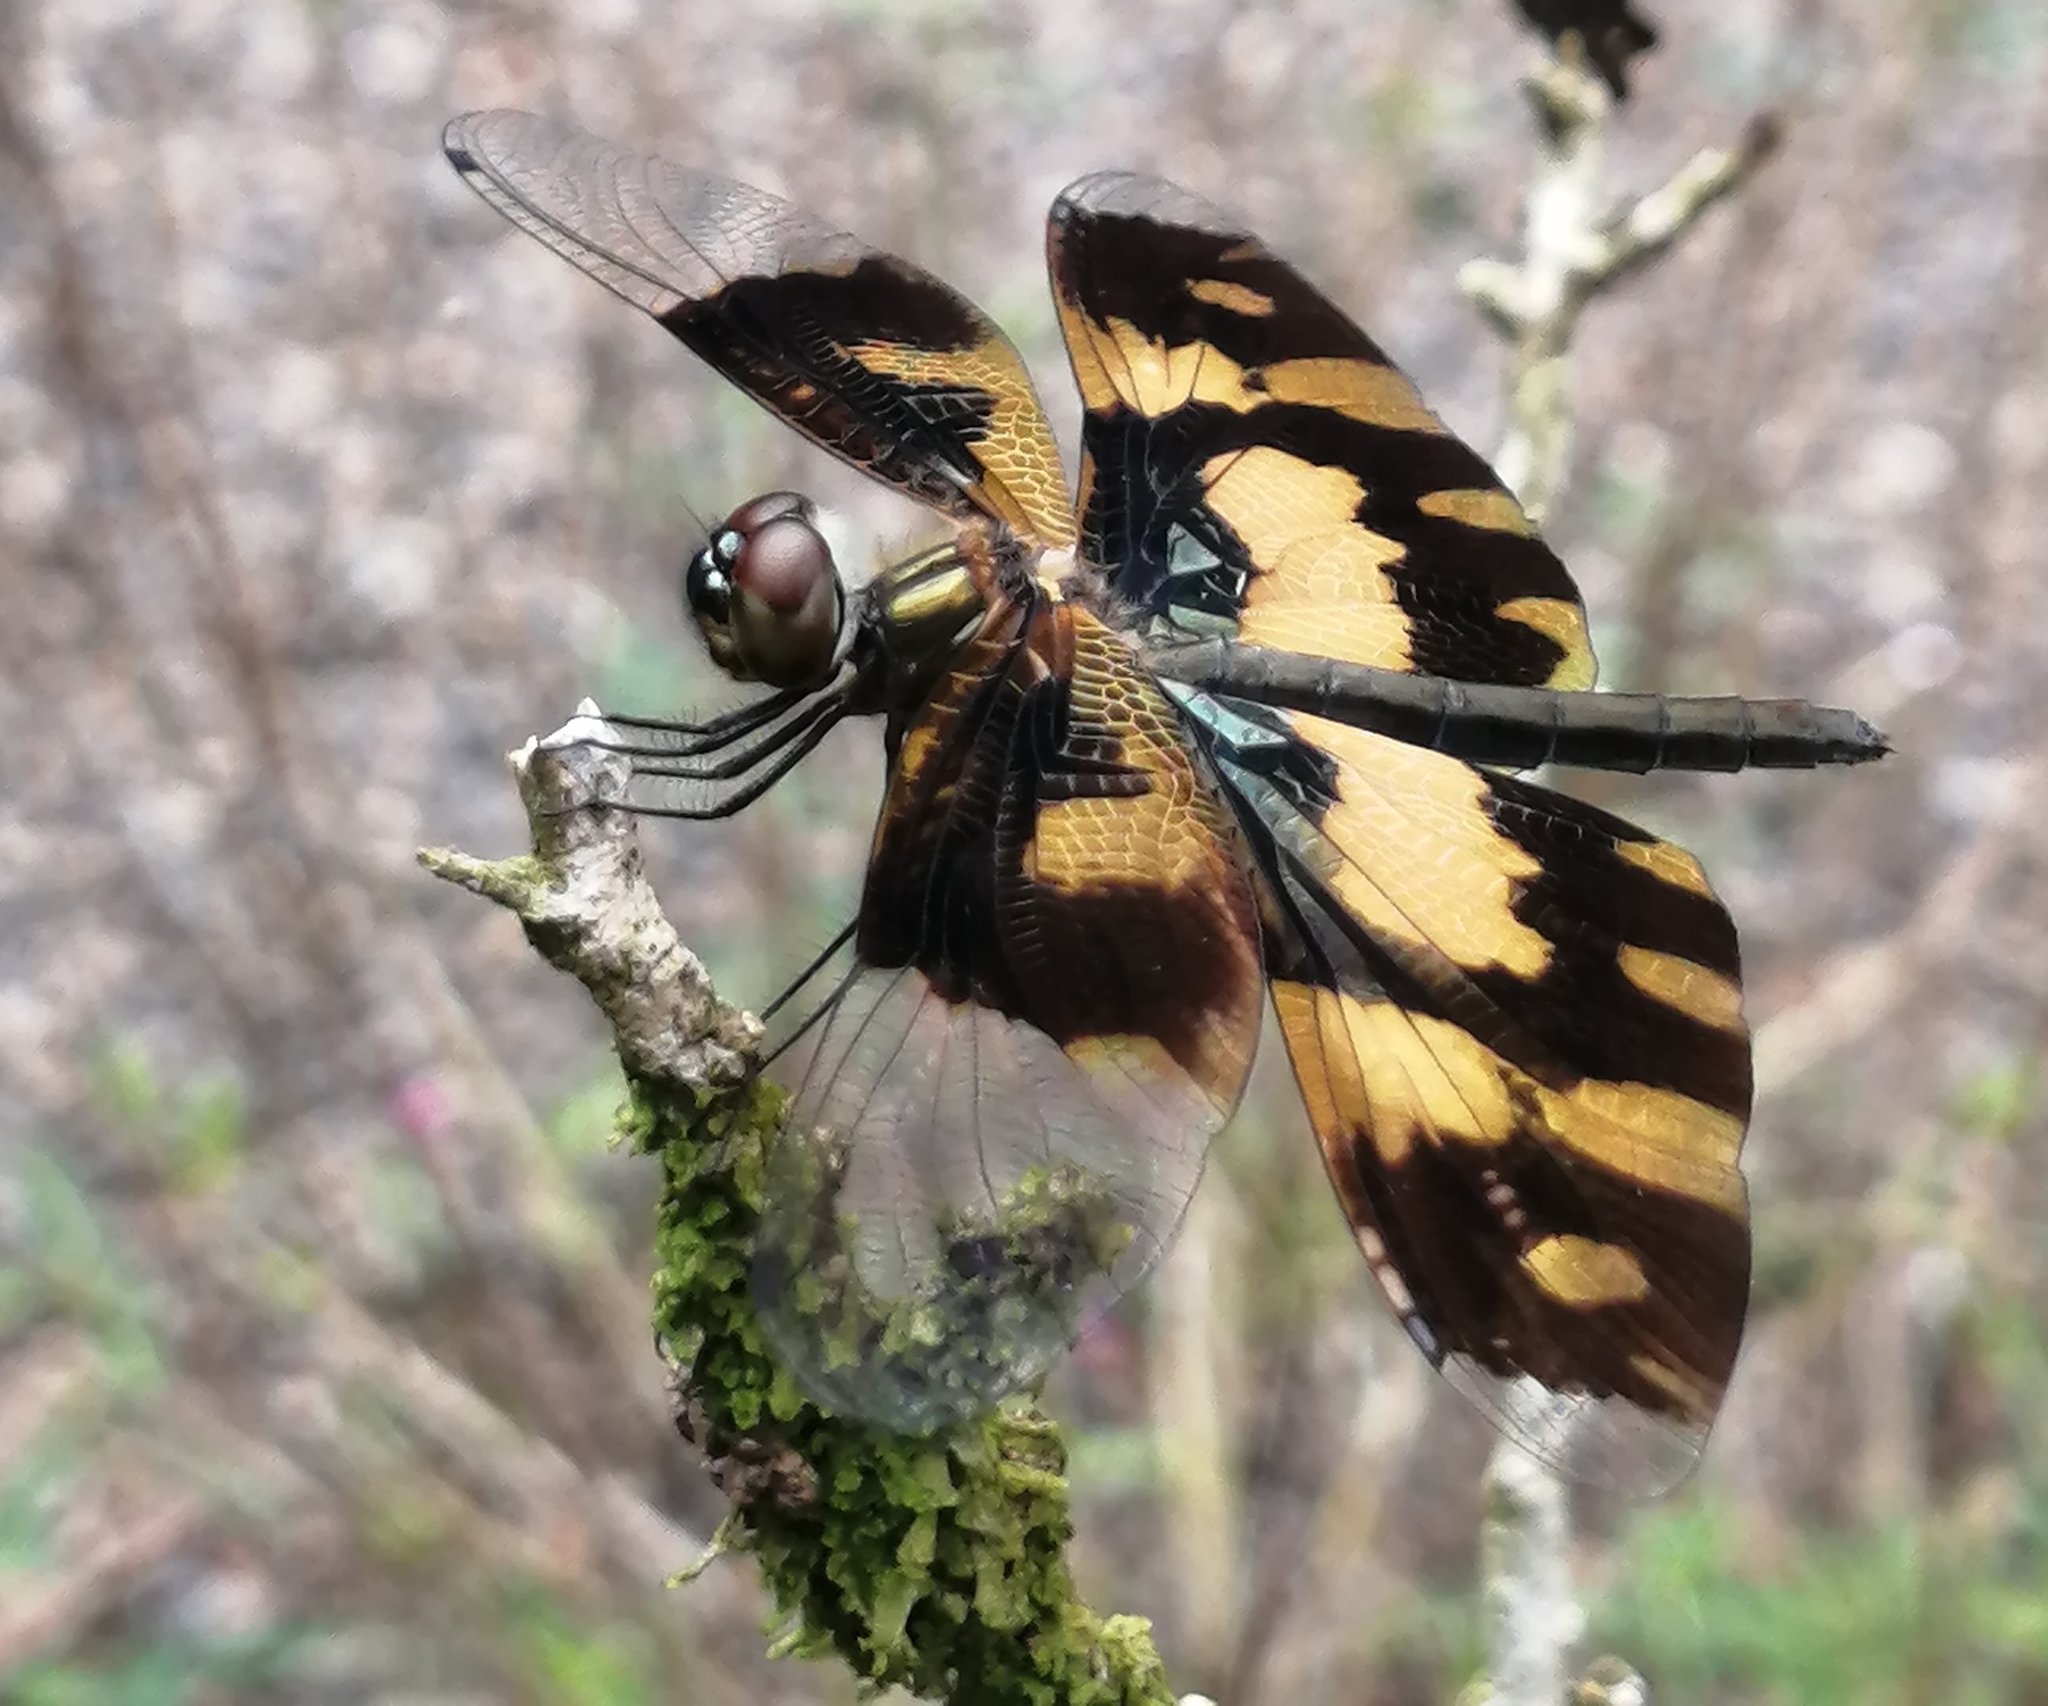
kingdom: Animalia
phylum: Arthropoda
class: Insecta
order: Odonata
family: Libellulidae
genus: Rhyothemis
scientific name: Rhyothemis variegata
